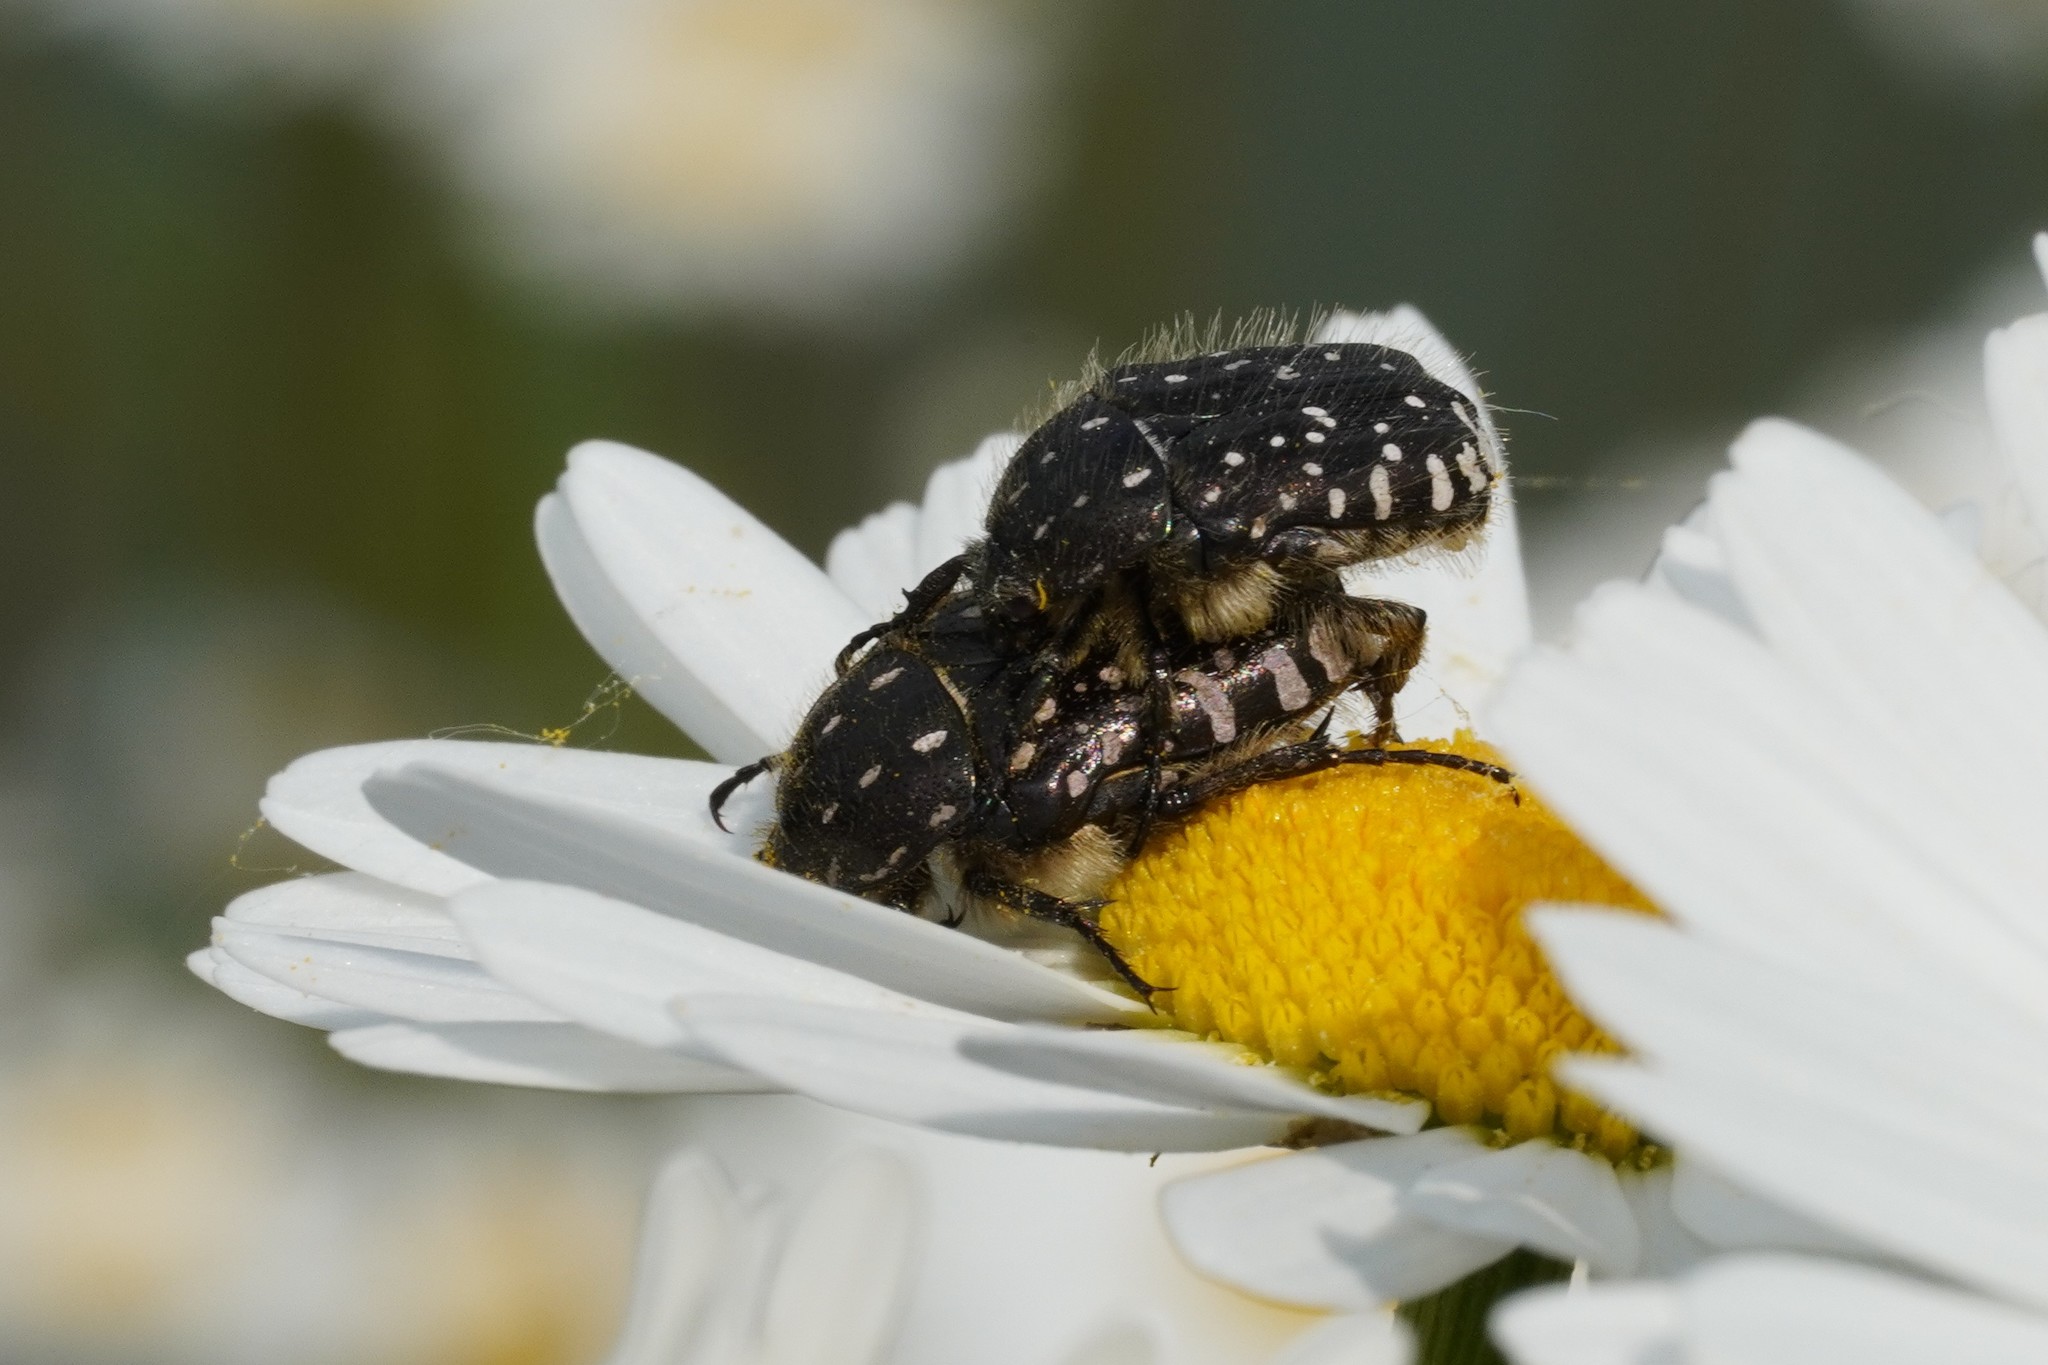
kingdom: Animalia
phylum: Arthropoda
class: Insecta
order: Coleoptera
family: Scarabaeidae
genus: Oxythyrea
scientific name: Oxythyrea funesta
